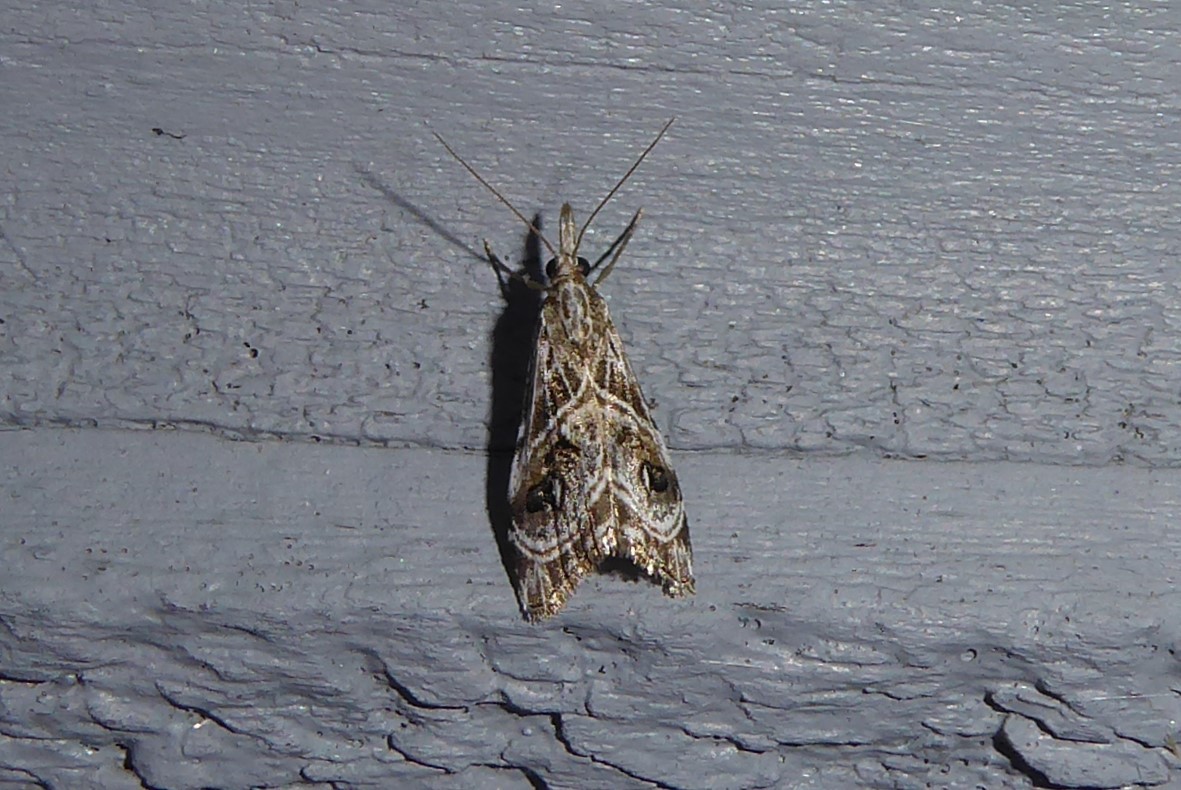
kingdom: Animalia
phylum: Arthropoda
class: Insecta
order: Lepidoptera
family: Crambidae
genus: Gadira
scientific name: Gadira acerella
